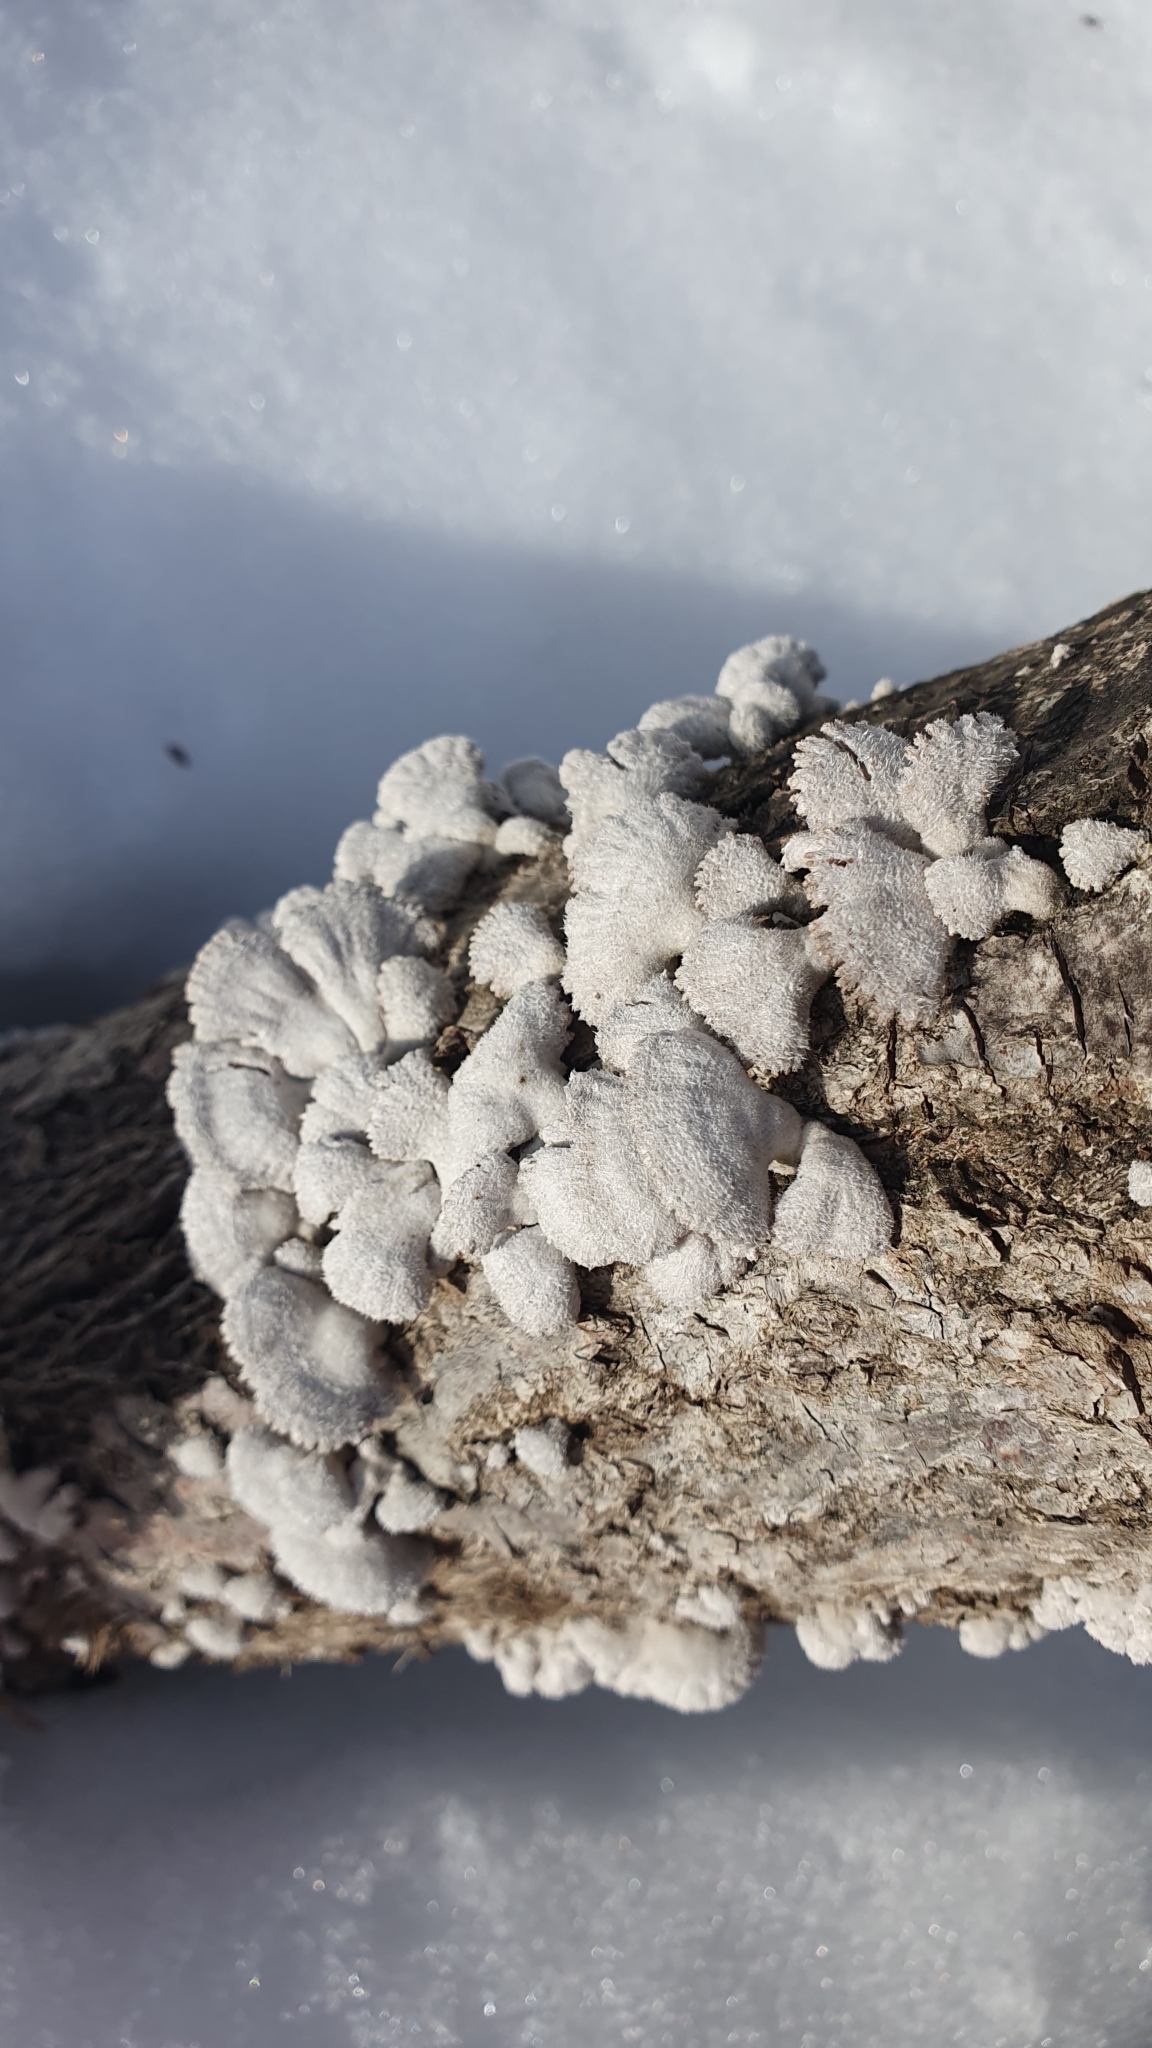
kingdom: Fungi
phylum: Basidiomycota
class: Agaricomycetes
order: Agaricales
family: Schizophyllaceae
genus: Schizophyllum
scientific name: Schizophyllum commune
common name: Common porecrust
